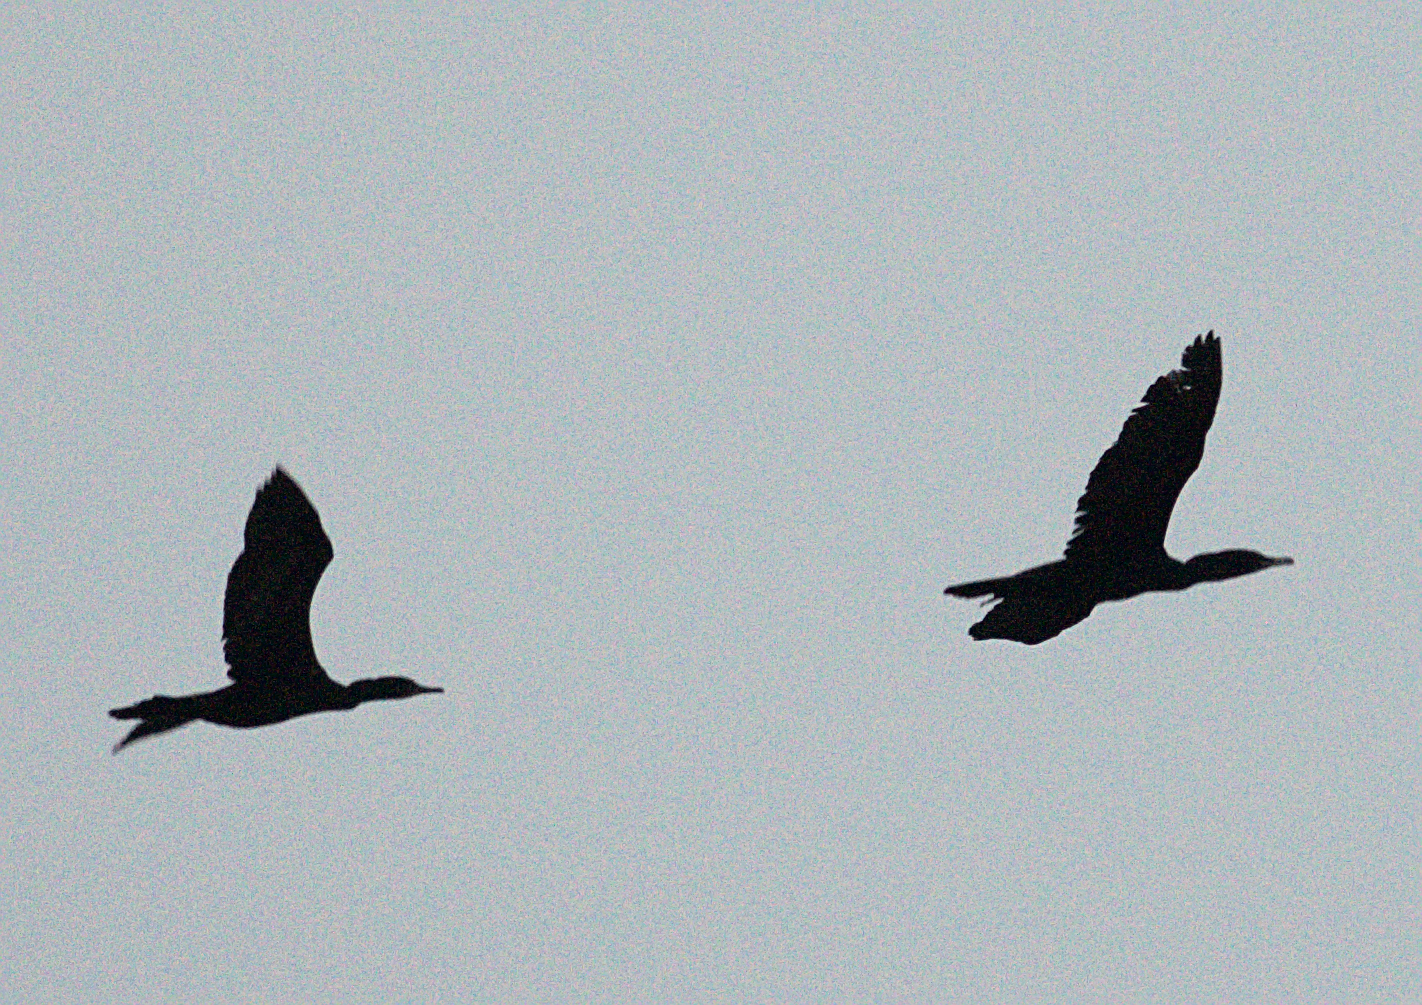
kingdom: Animalia
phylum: Chordata
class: Aves
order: Suliformes
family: Phalacrocoracidae
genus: Phalacrocorax
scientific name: Phalacrocorax fuscicollis
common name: Indian cormorant
